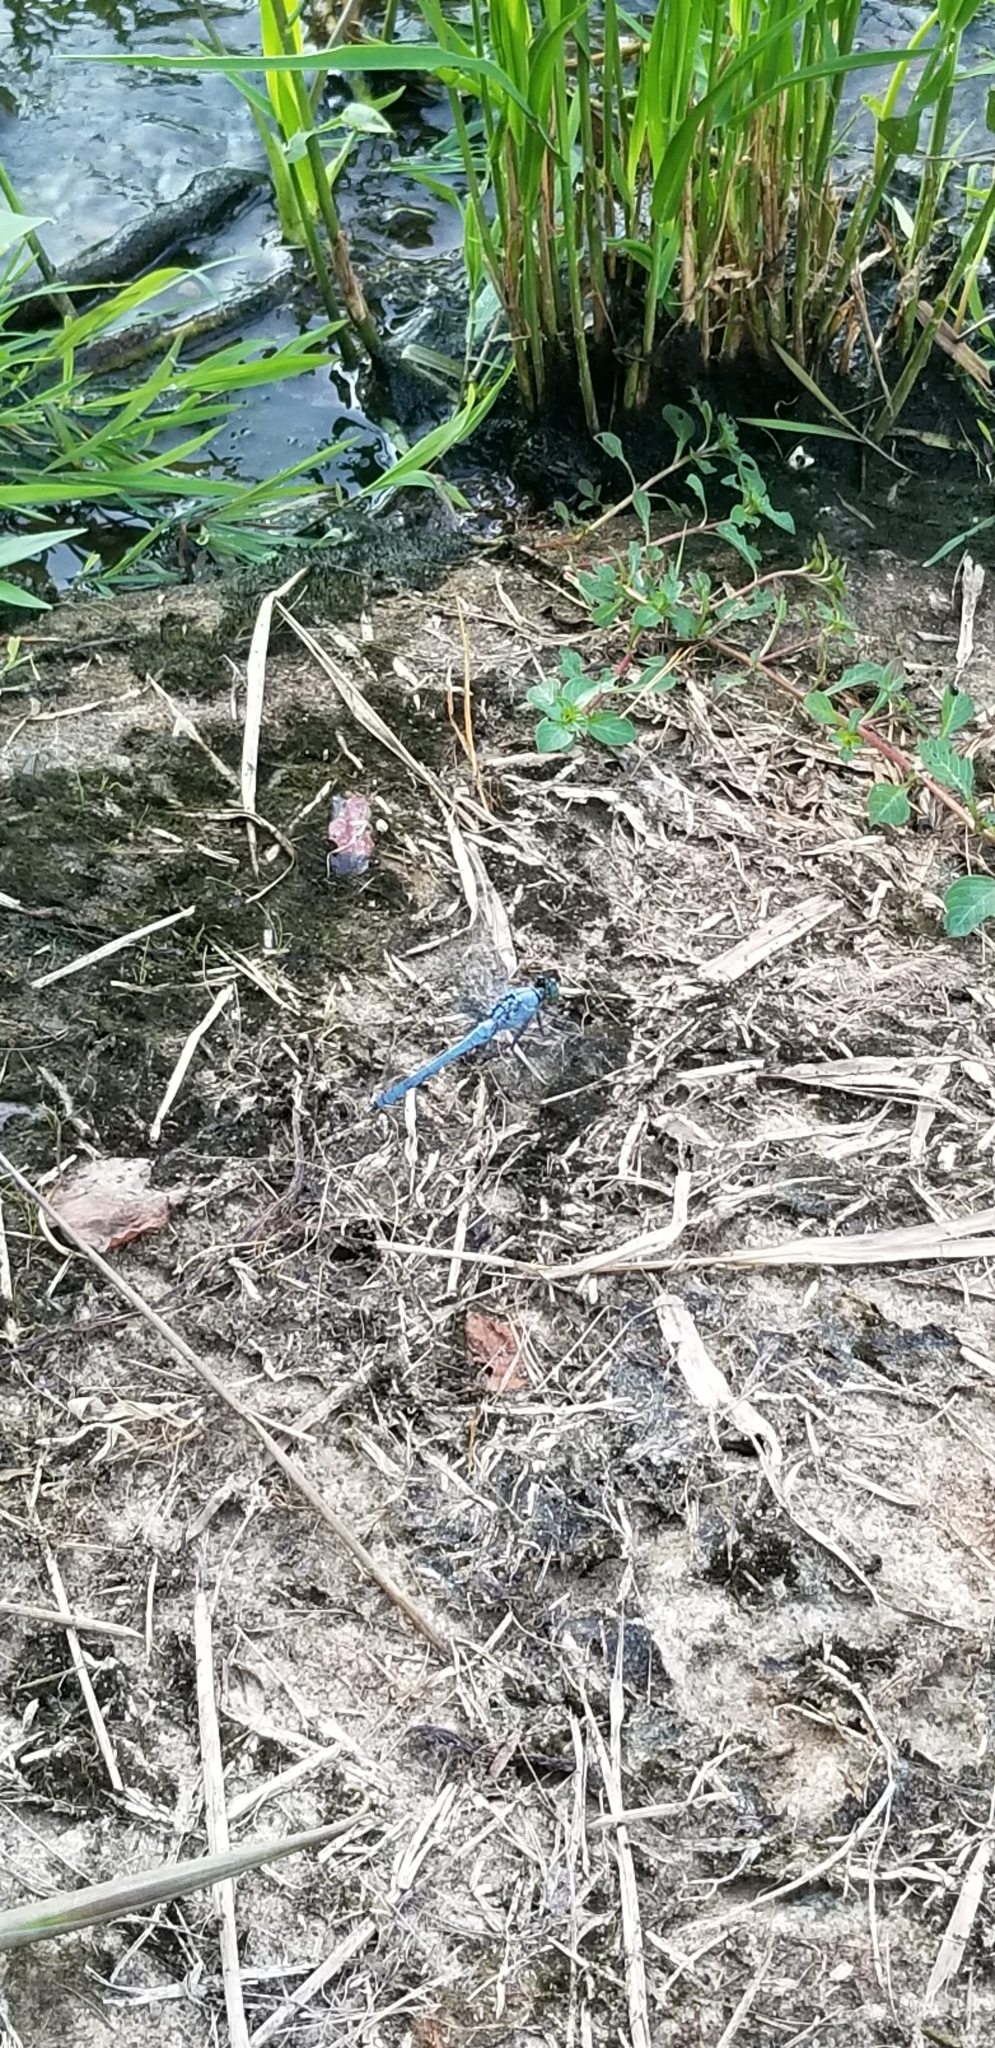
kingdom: Animalia
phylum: Arthropoda
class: Insecta
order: Odonata
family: Libellulidae
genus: Erythemis
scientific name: Erythemis simplicicollis
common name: Eastern pondhawk
